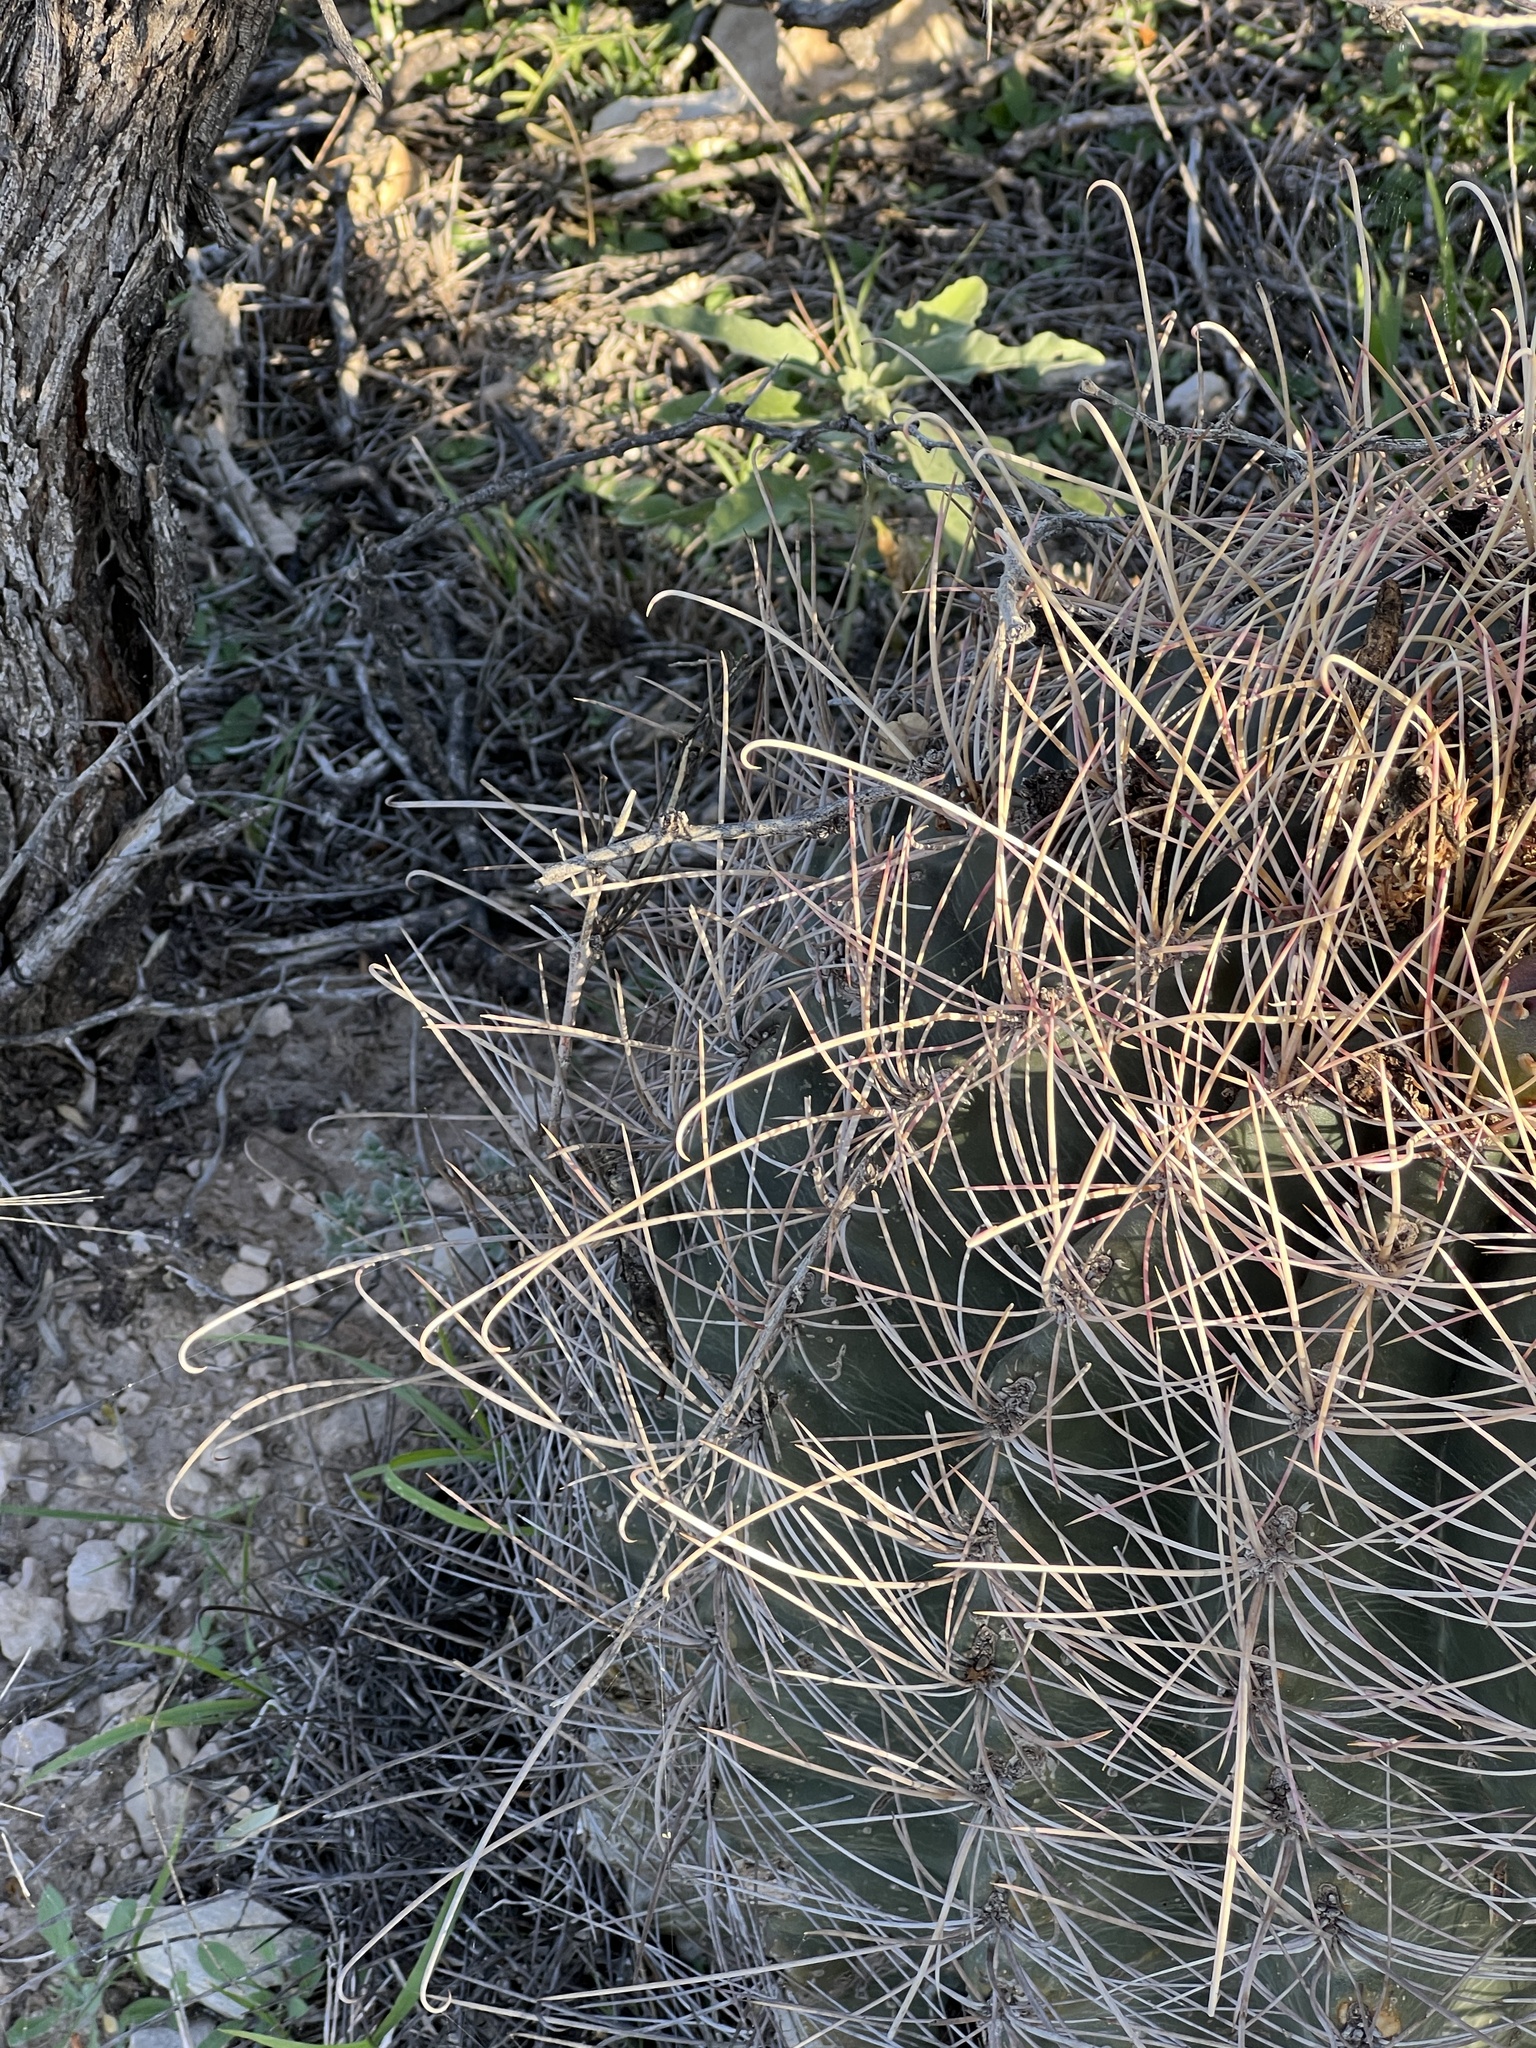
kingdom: Plantae
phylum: Tracheophyta
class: Magnoliopsida
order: Caryophyllales
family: Cactaceae
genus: Bisnaga
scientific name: Bisnaga hamatacantha
